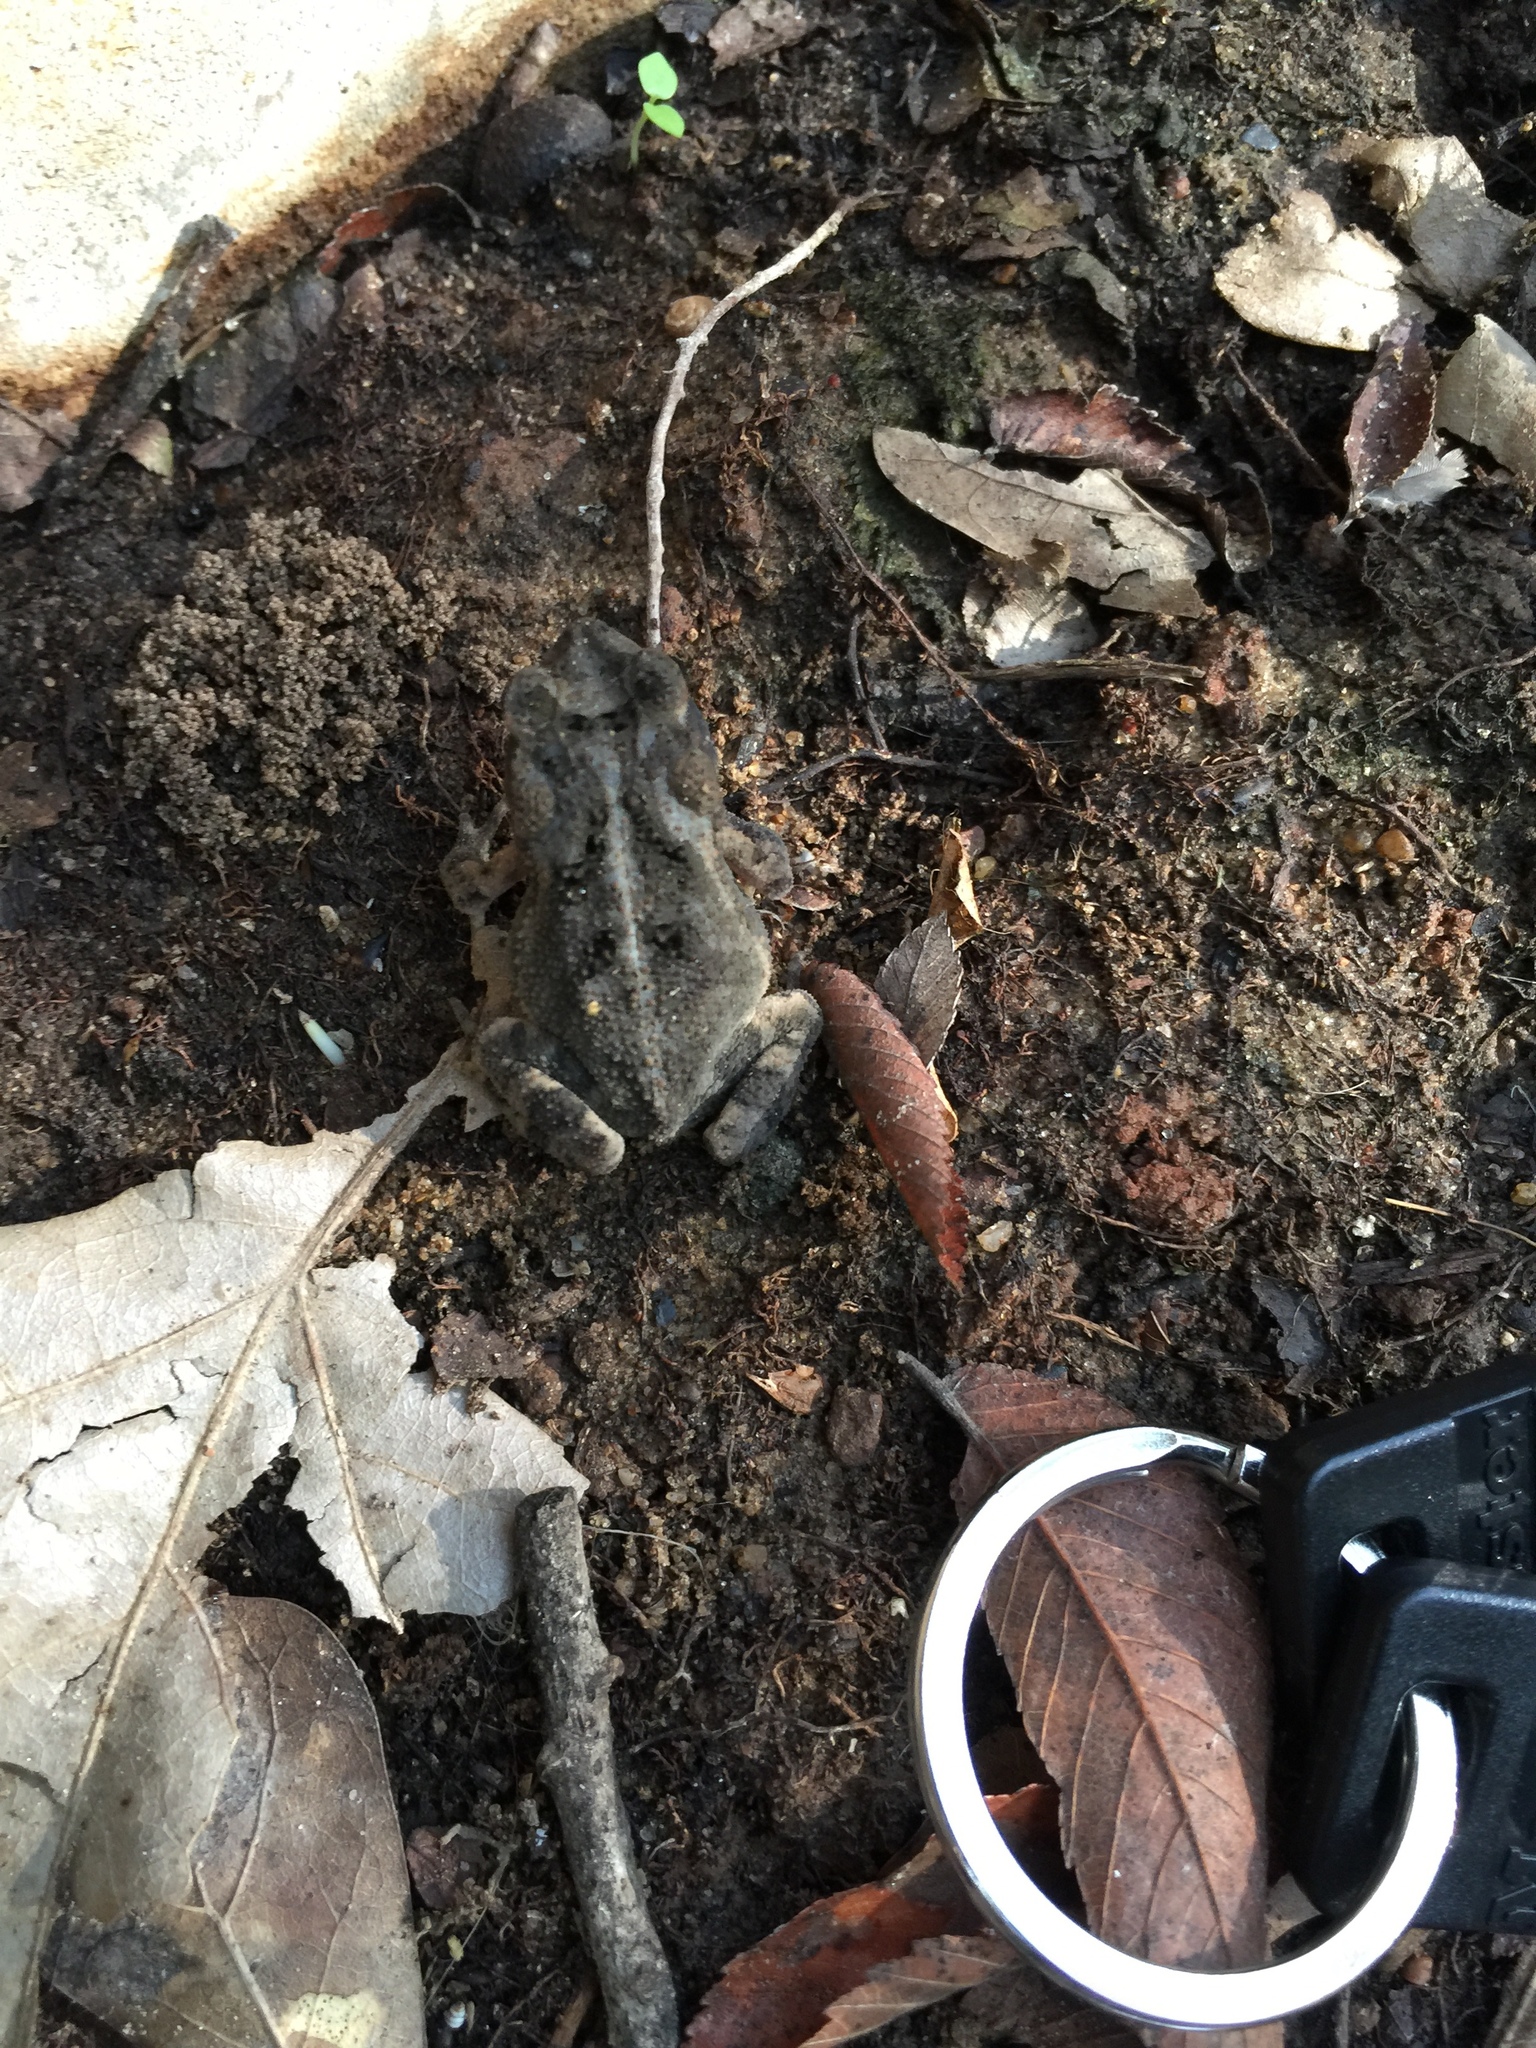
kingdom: Animalia
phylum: Chordata
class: Amphibia
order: Anura
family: Bufonidae
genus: Incilius
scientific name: Incilius nebulifer
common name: Gulf coast toad
